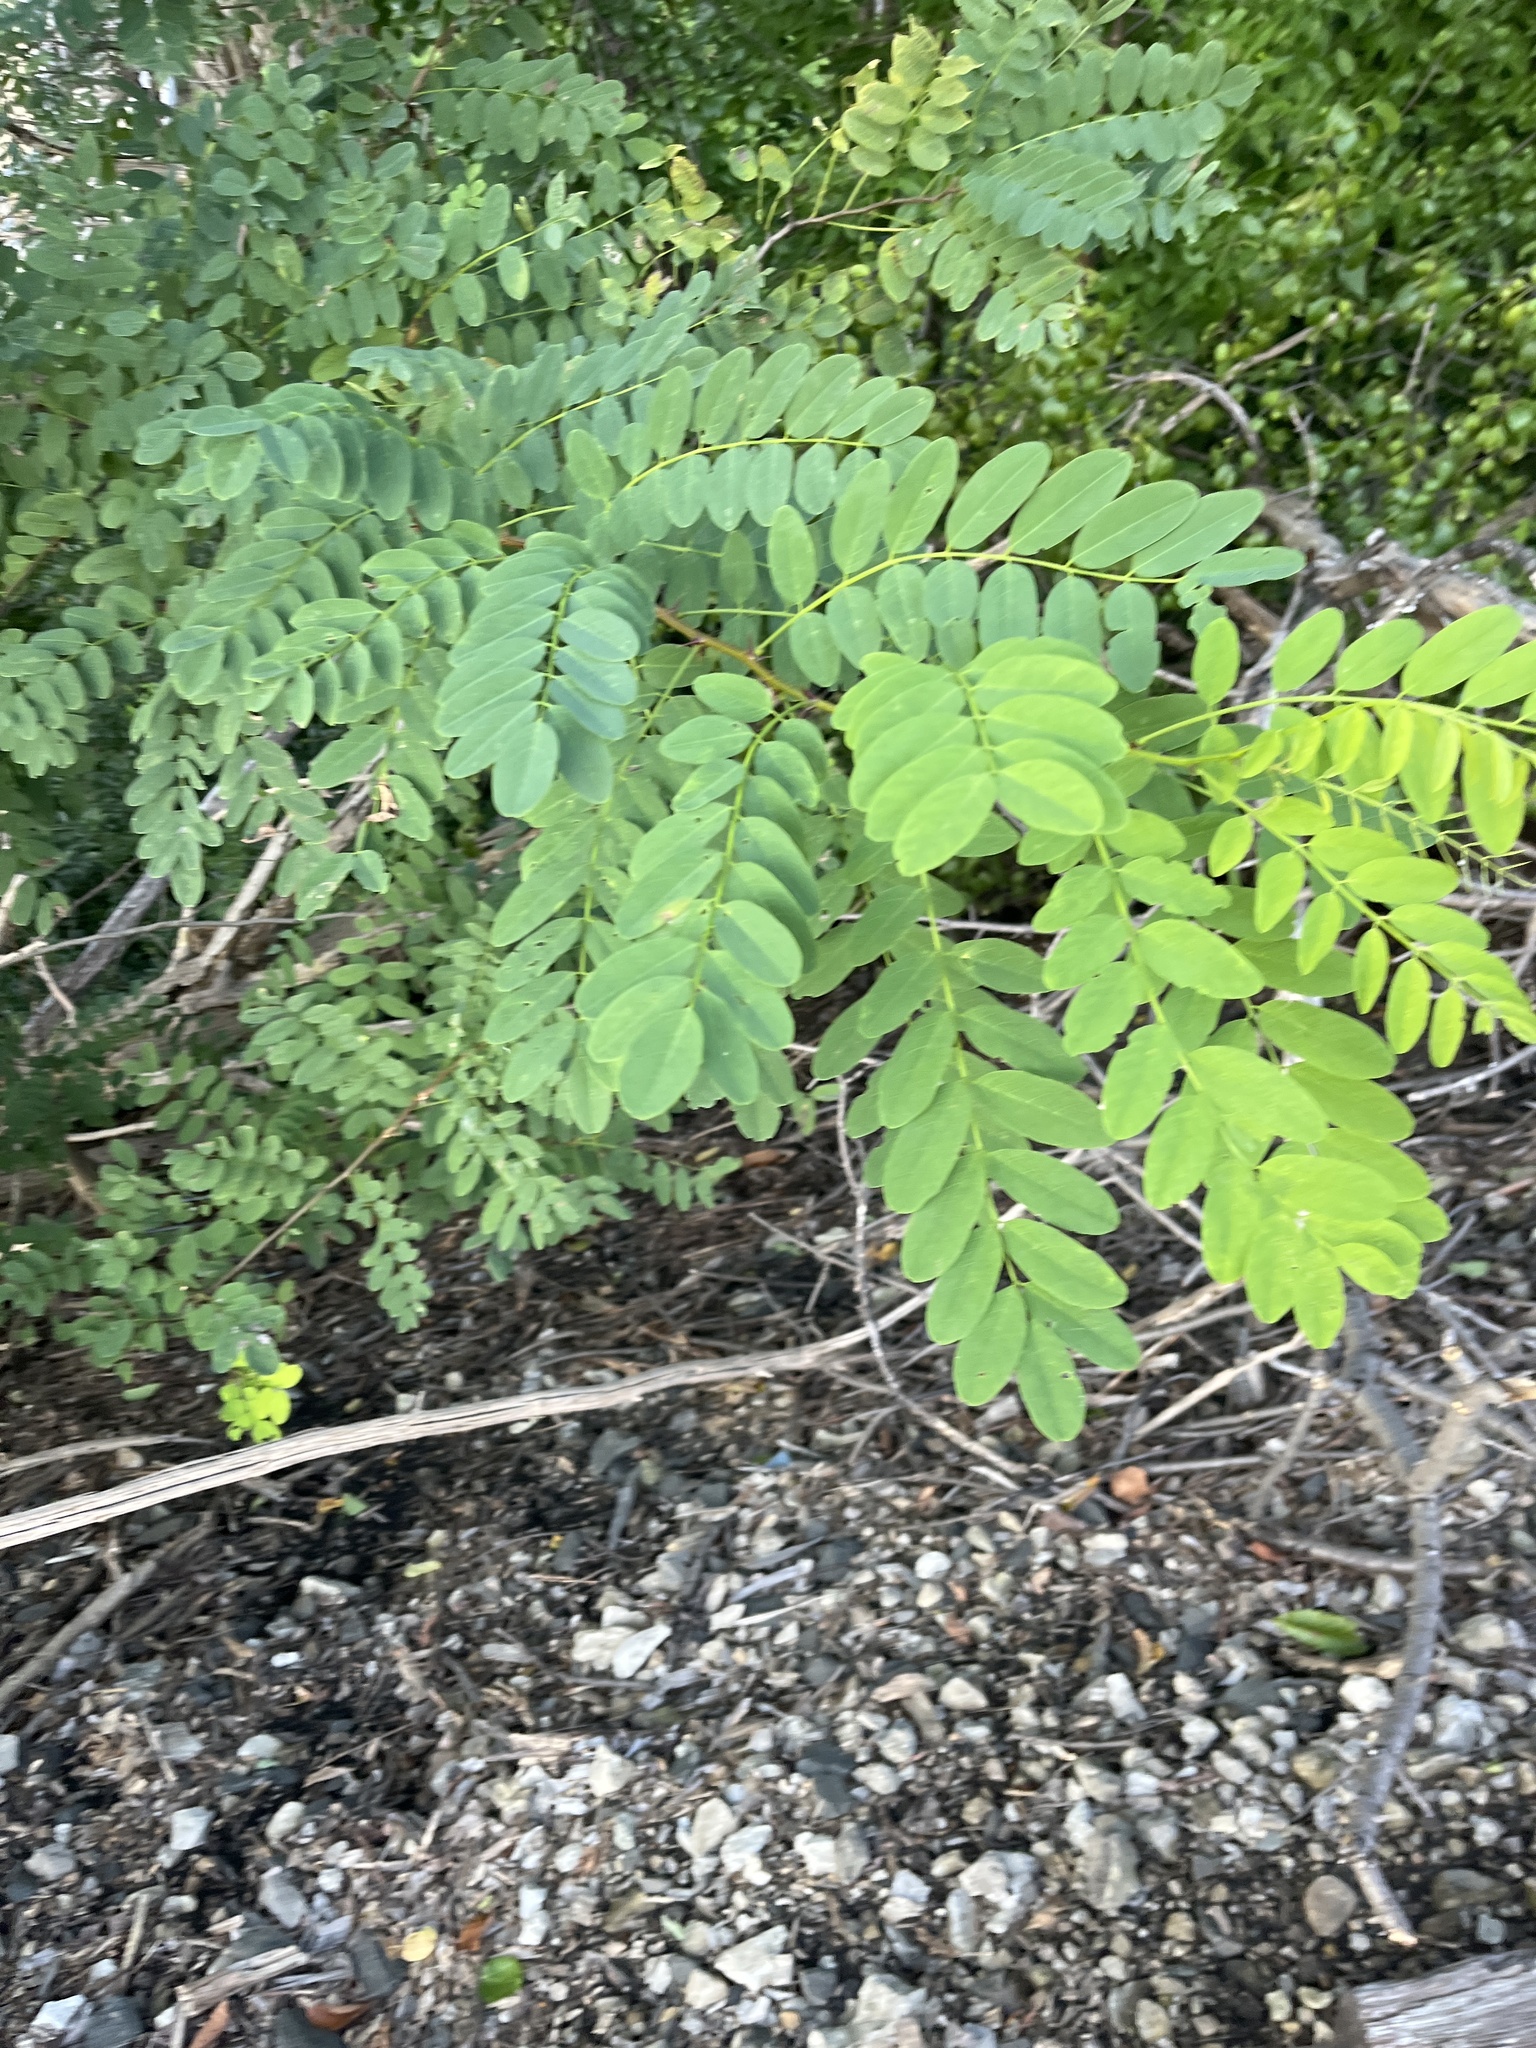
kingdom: Plantae
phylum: Tracheophyta
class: Magnoliopsida
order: Fabales
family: Fabaceae
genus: Robinia
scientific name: Robinia pseudoacacia
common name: Black locust
